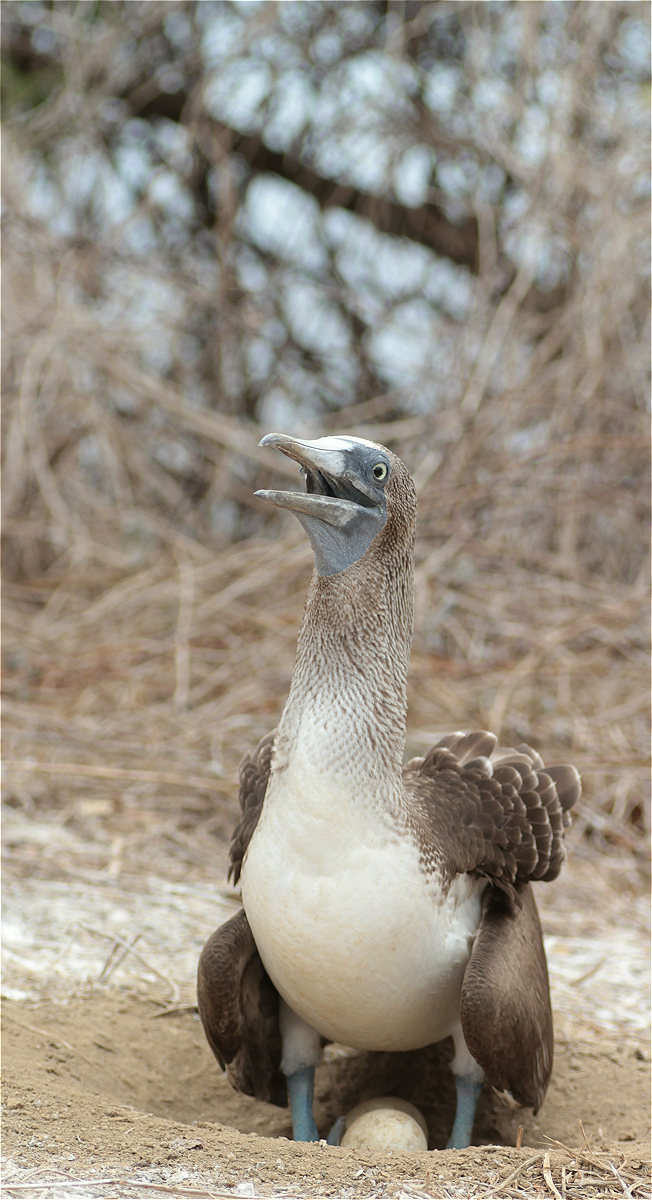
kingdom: Animalia
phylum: Chordata
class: Aves
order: Suliformes
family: Sulidae
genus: Sula
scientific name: Sula nebouxii
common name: Blue-footed booby
